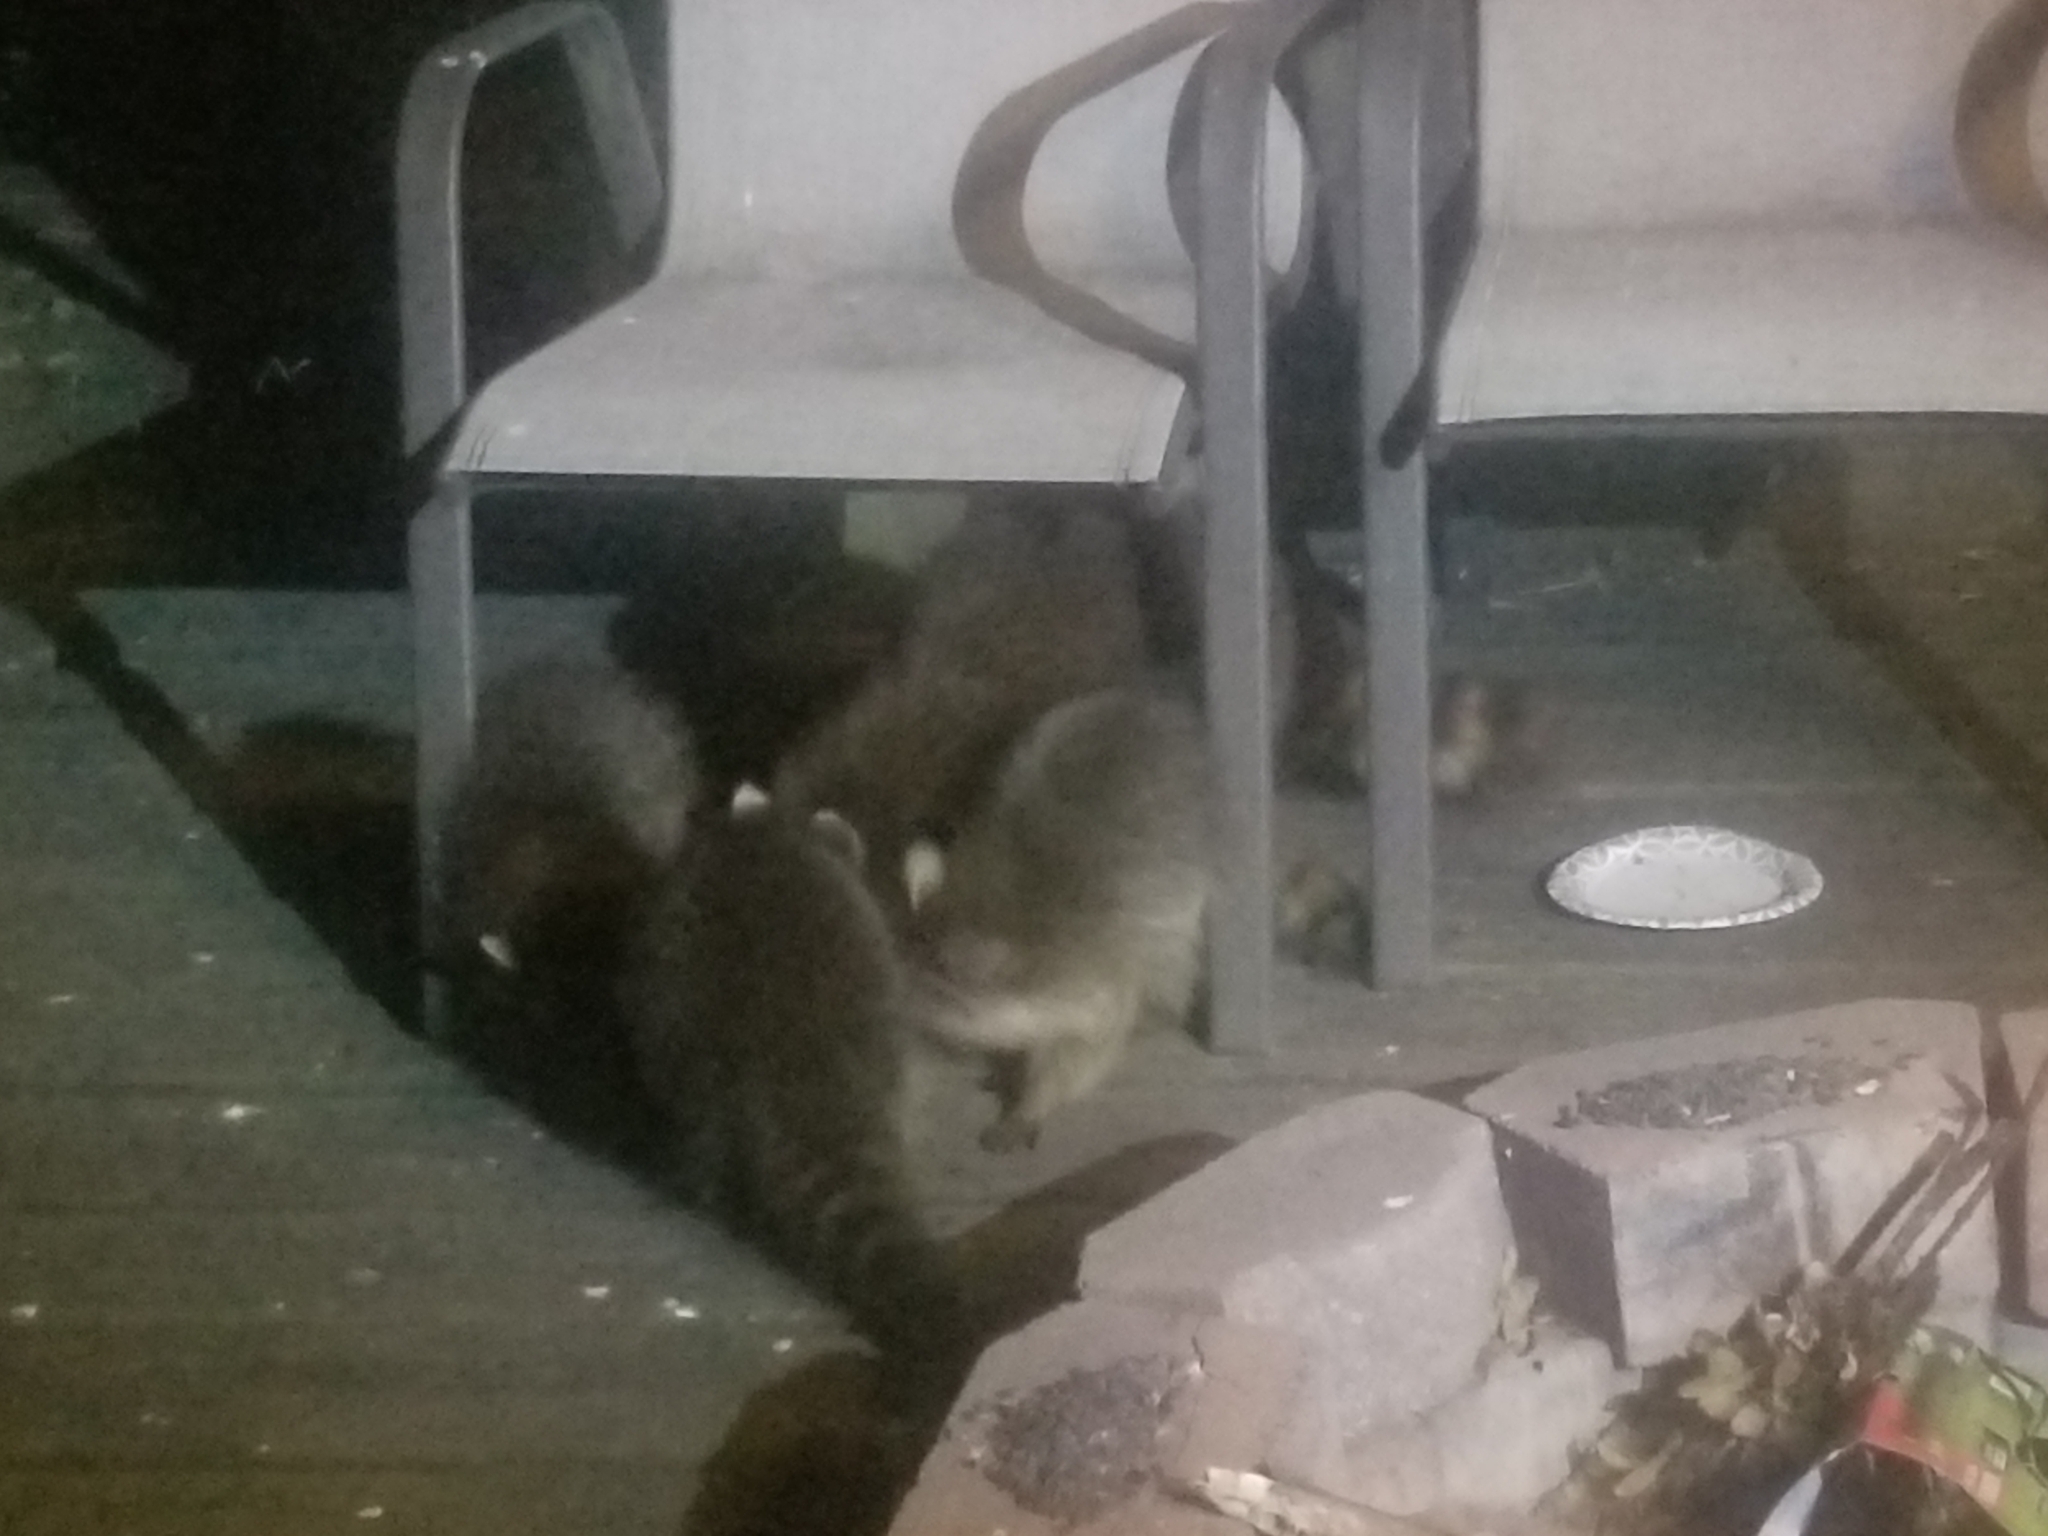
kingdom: Animalia
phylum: Chordata
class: Mammalia
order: Carnivora
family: Procyonidae
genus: Procyon
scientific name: Procyon lotor
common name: Raccoon
